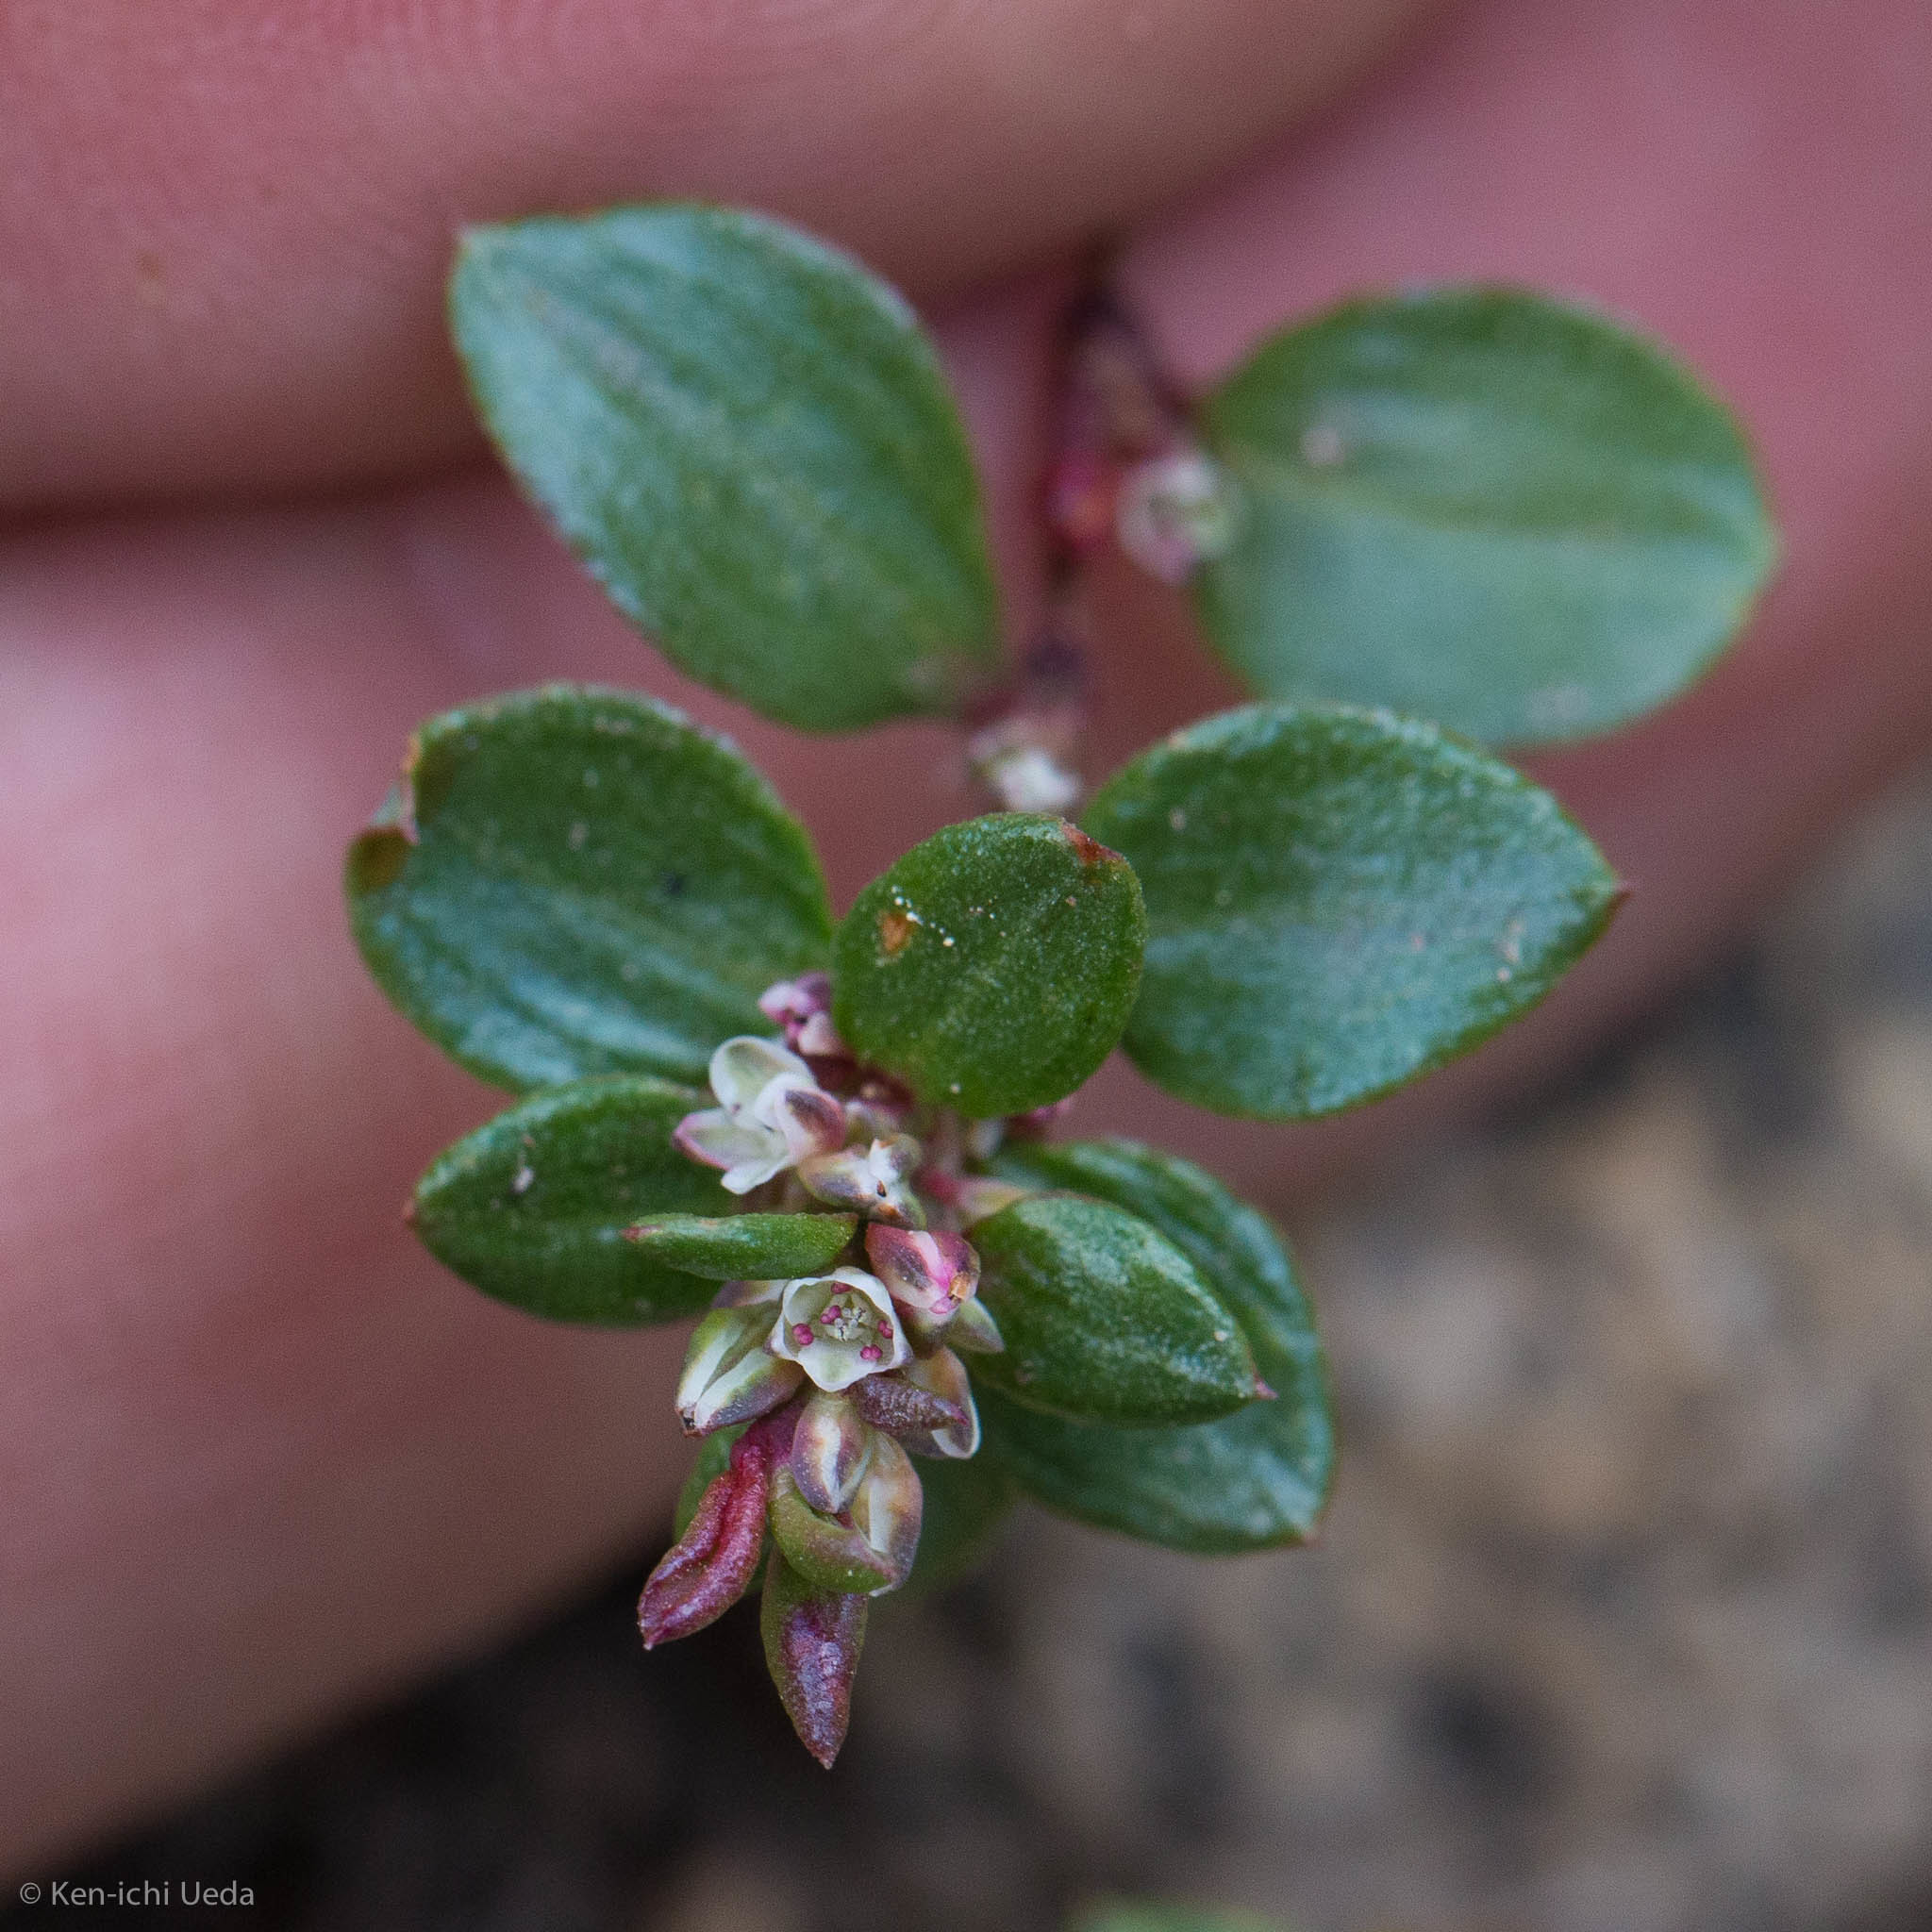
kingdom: Plantae
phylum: Tracheophyta
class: Magnoliopsida
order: Caryophyllales
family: Polygonaceae
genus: Polygonum
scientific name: Polygonum minimum
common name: Broad-leaved knotweed
